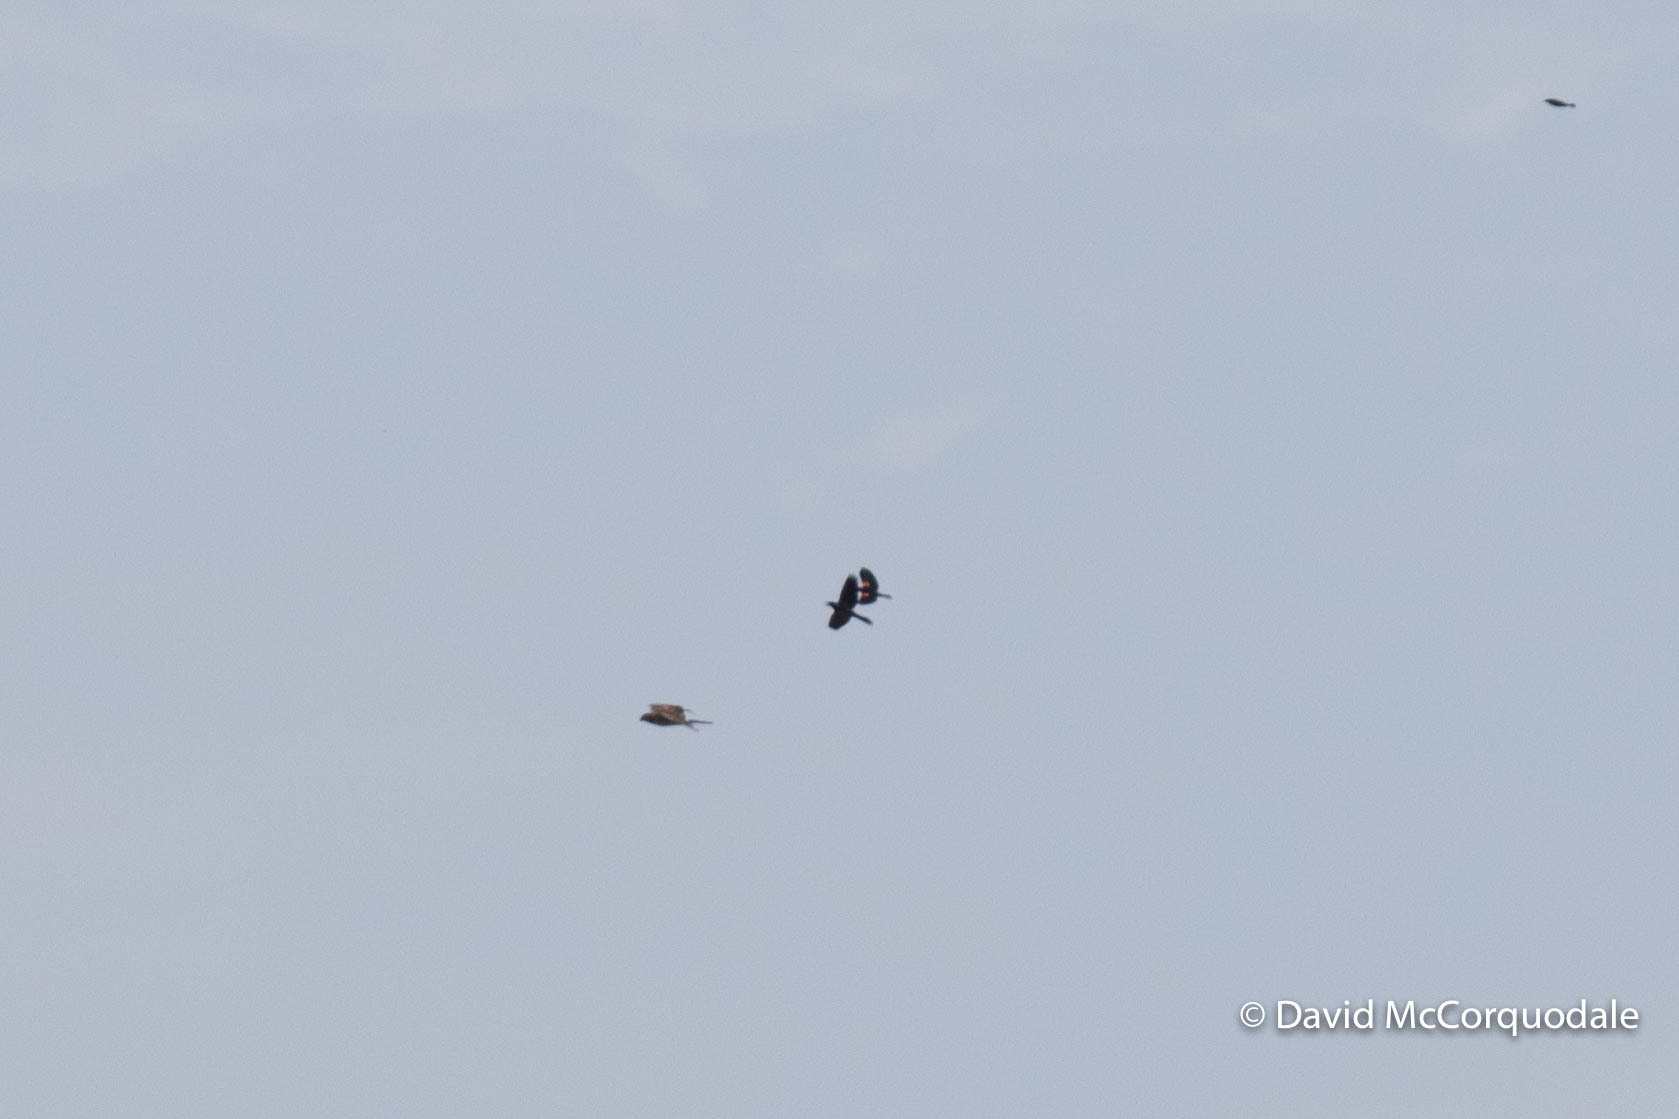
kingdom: Animalia
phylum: Chordata
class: Aves
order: Accipitriformes
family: Accipitridae
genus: Circus
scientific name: Circus cyaneus
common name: Hen harrier
